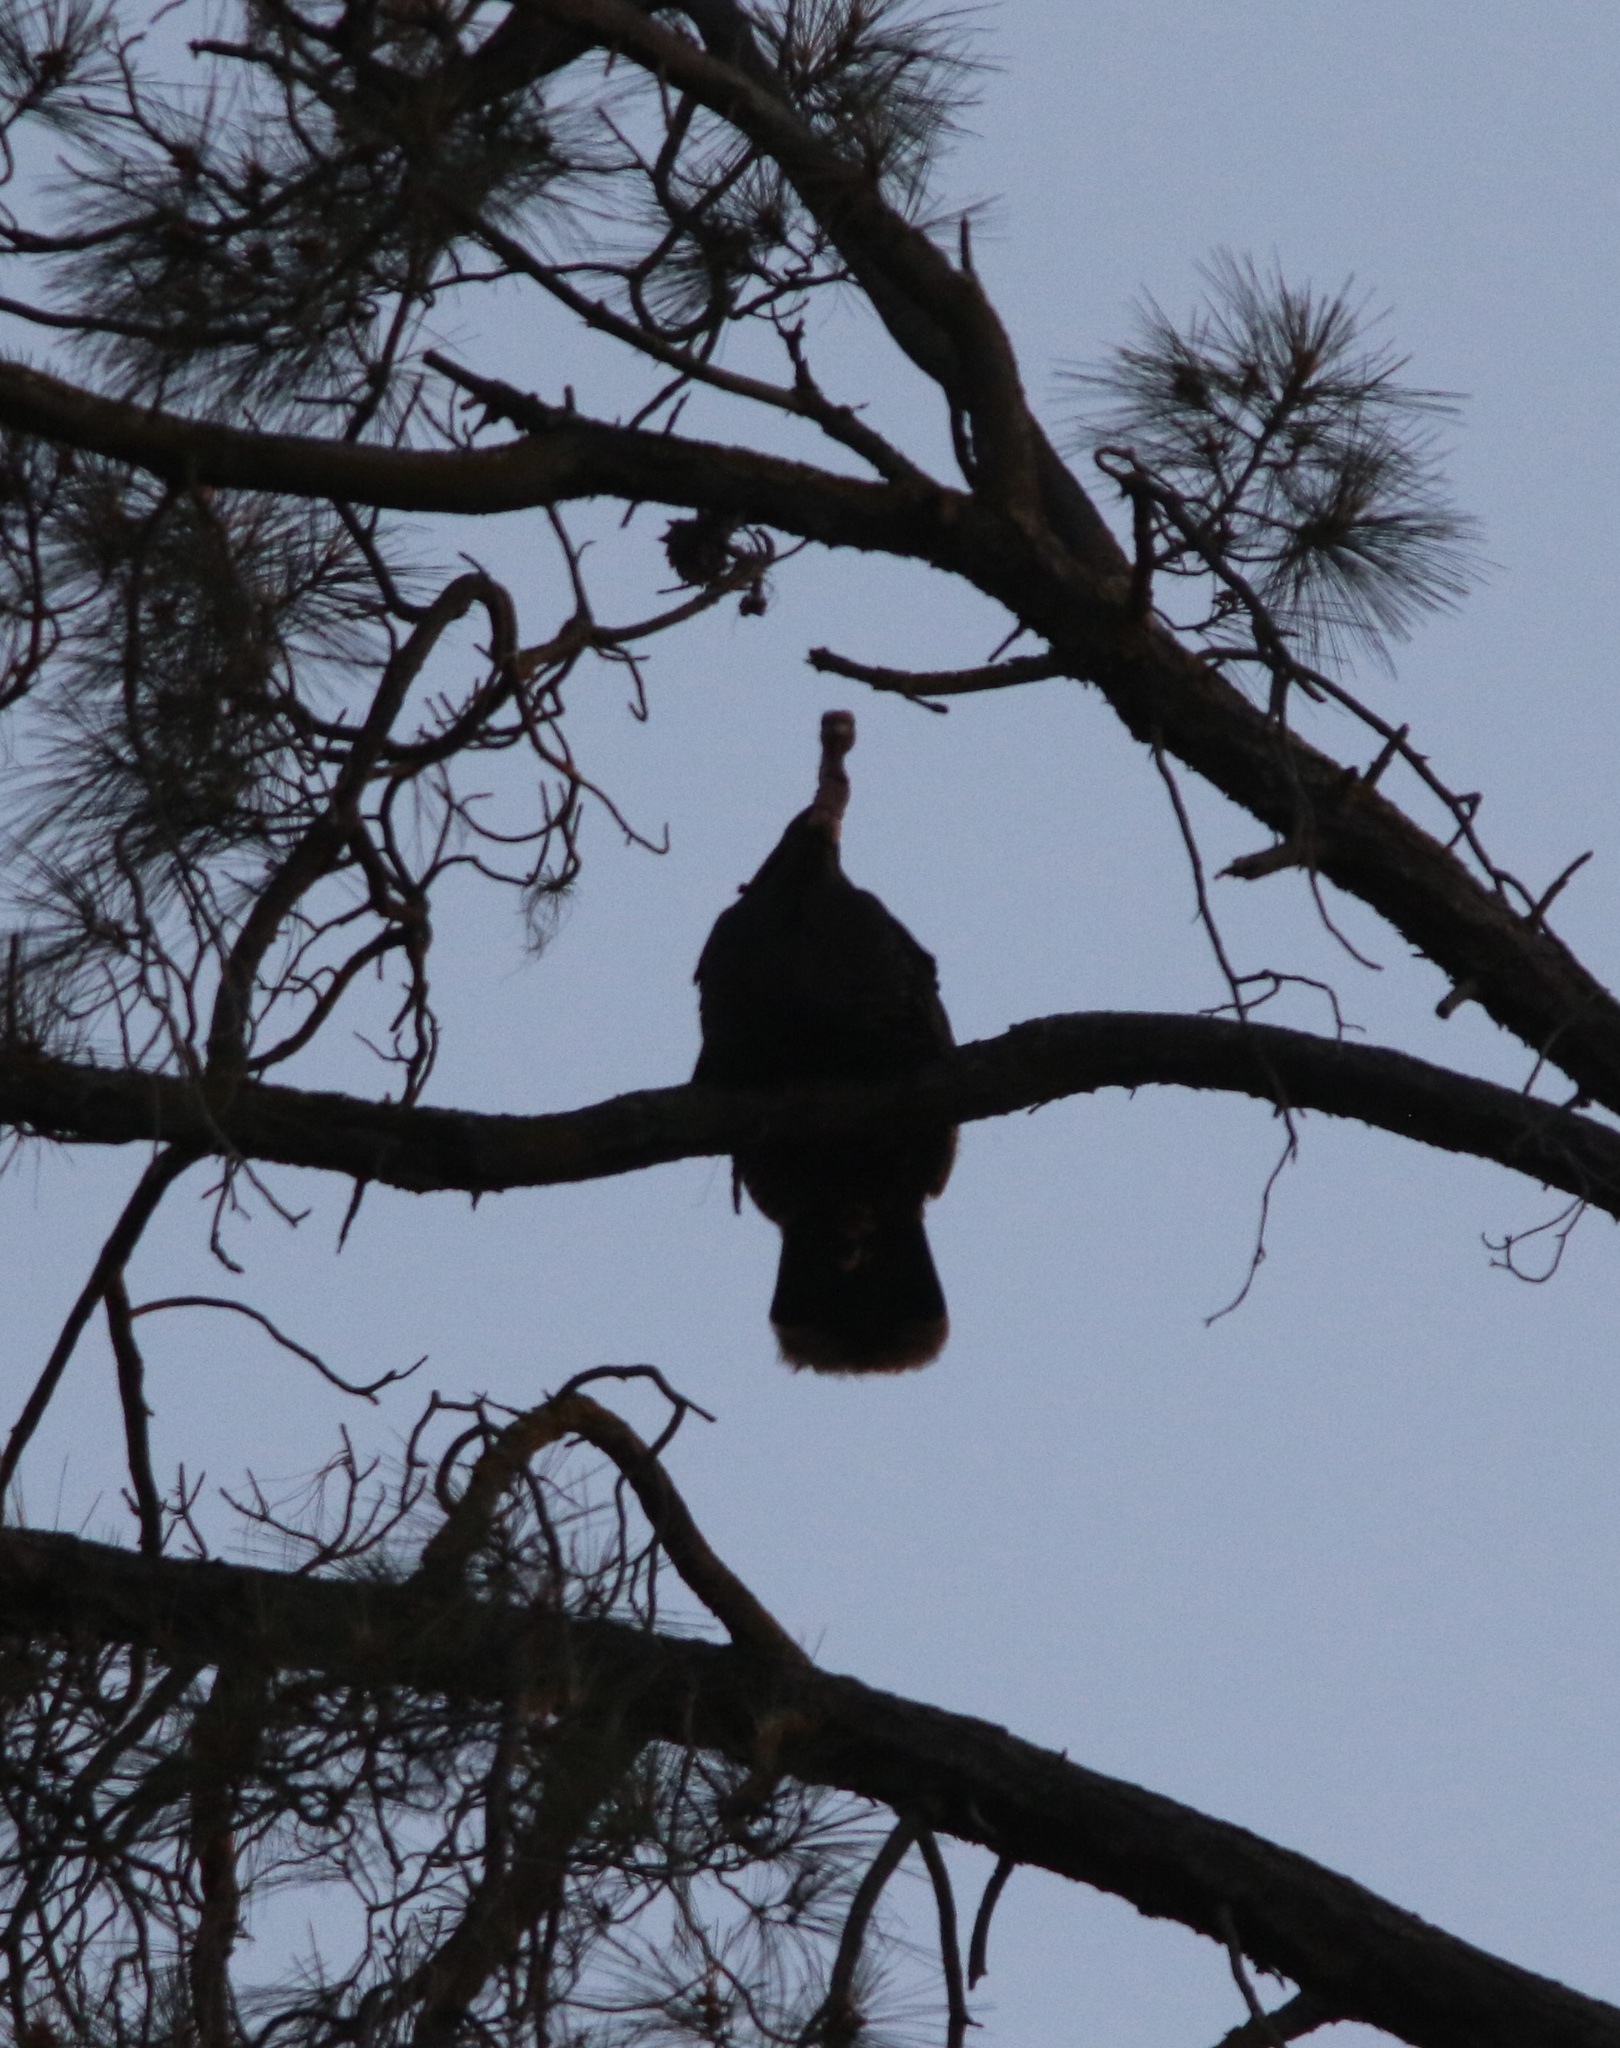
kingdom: Animalia
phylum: Chordata
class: Aves
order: Galliformes
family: Phasianidae
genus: Meleagris
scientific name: Meleagris gallopavo
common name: Wild turkey
